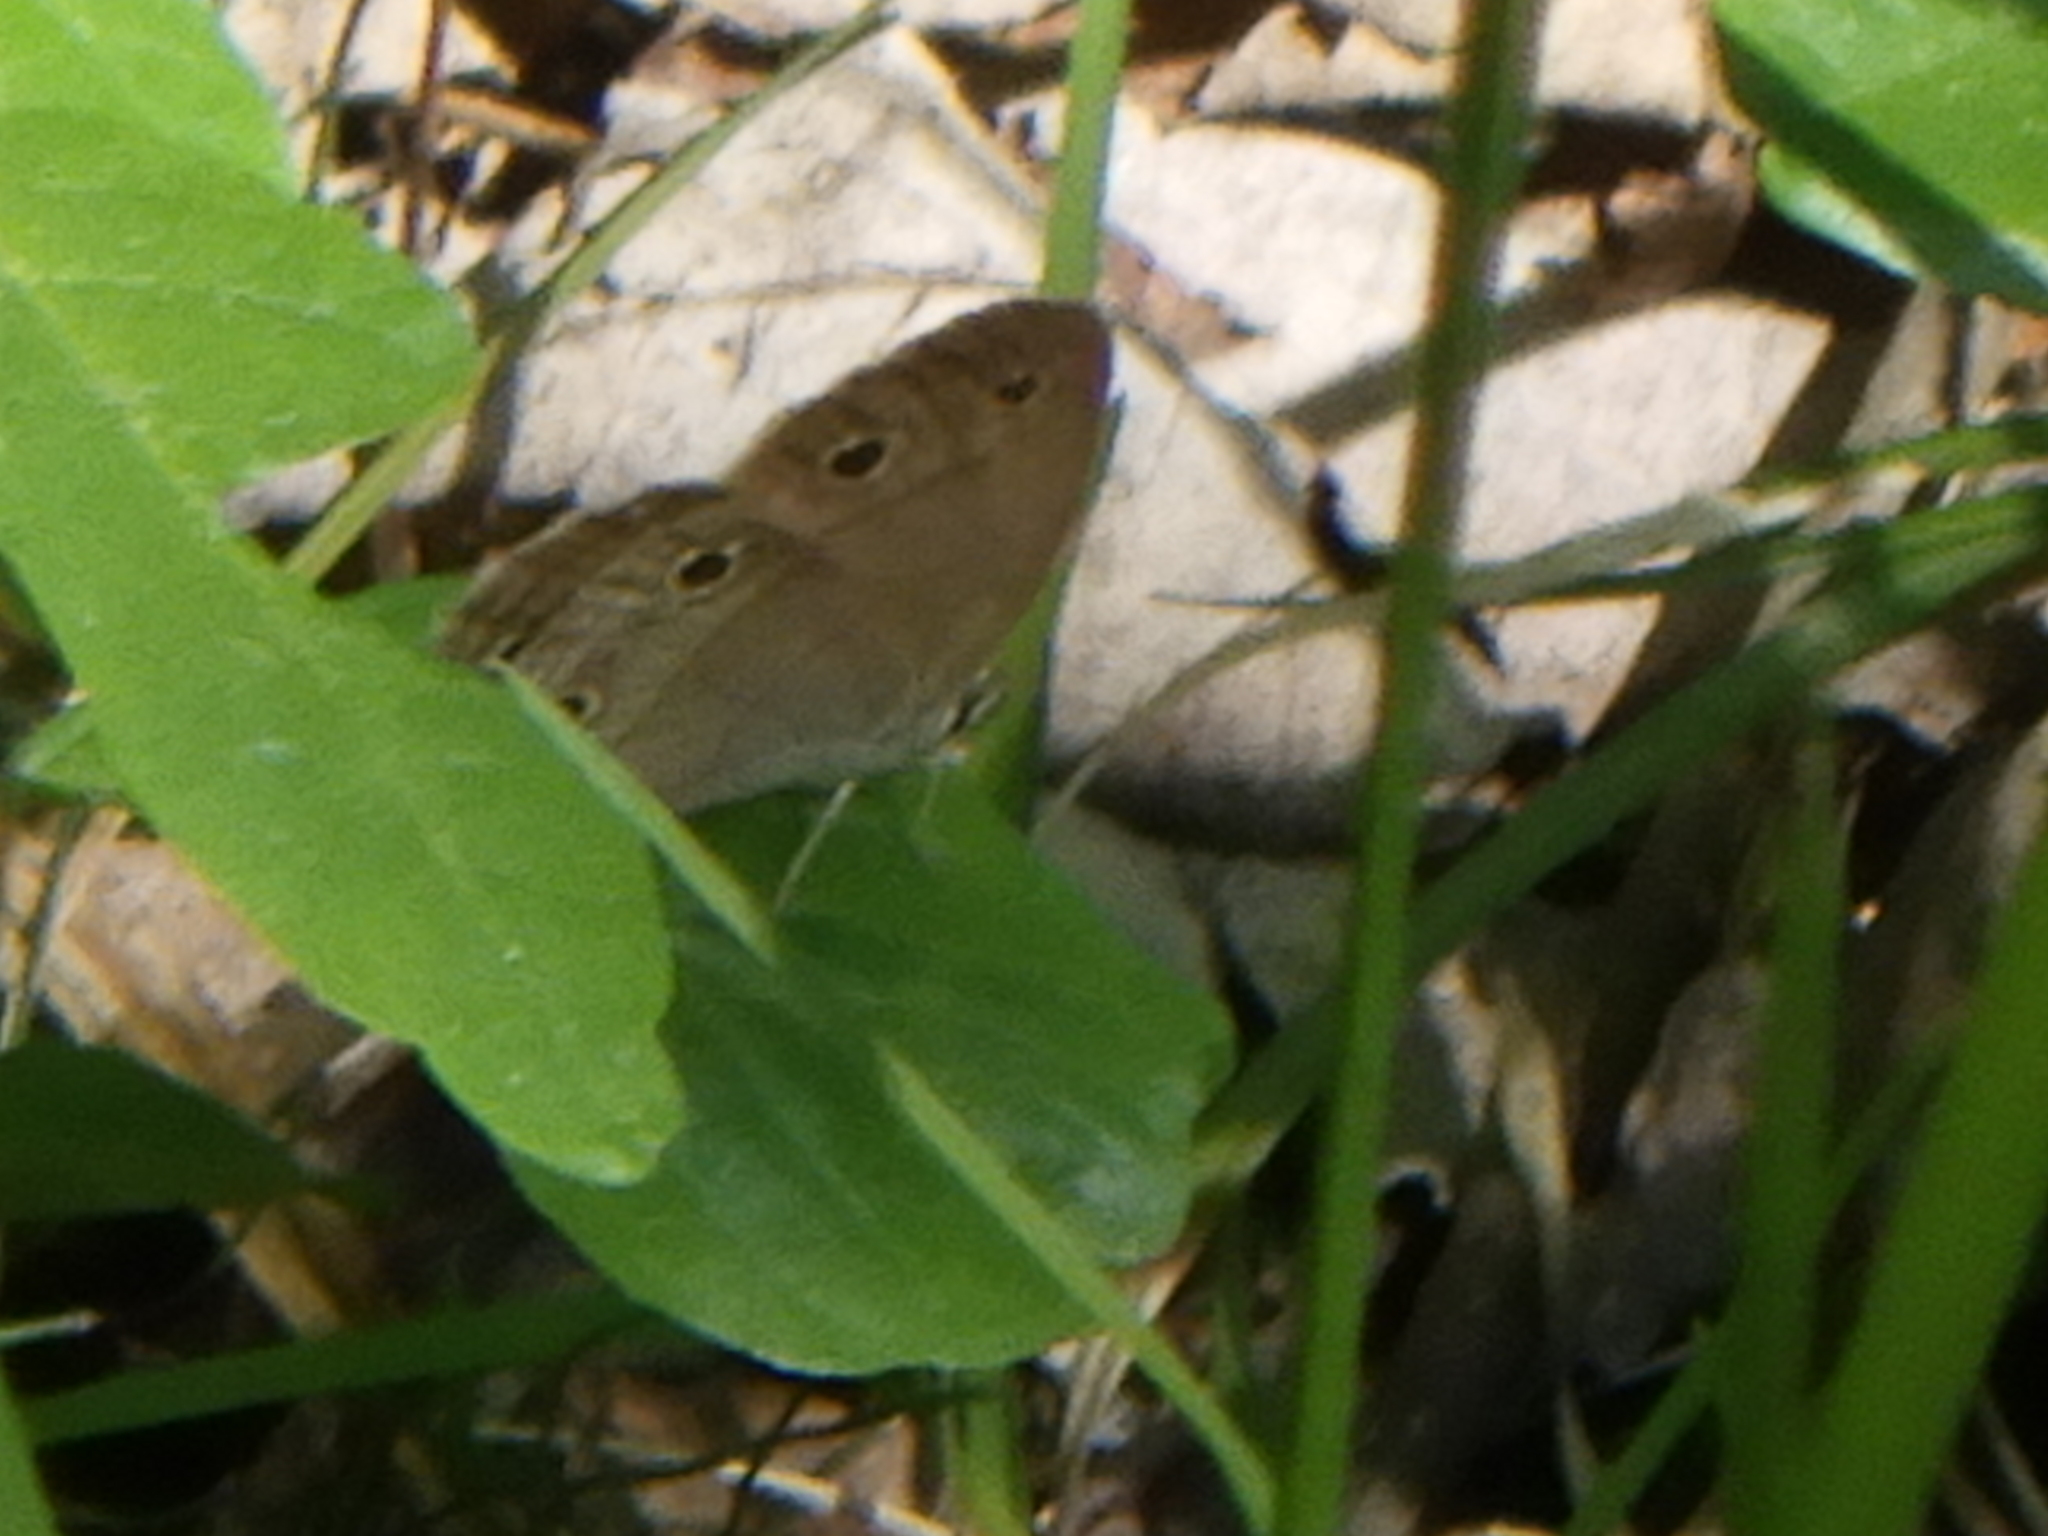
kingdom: Animalia
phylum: Arthropoda
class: Insecta
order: Lepidoptera
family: Nymphalidae
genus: Euptychia
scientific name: Euptychia cymela
